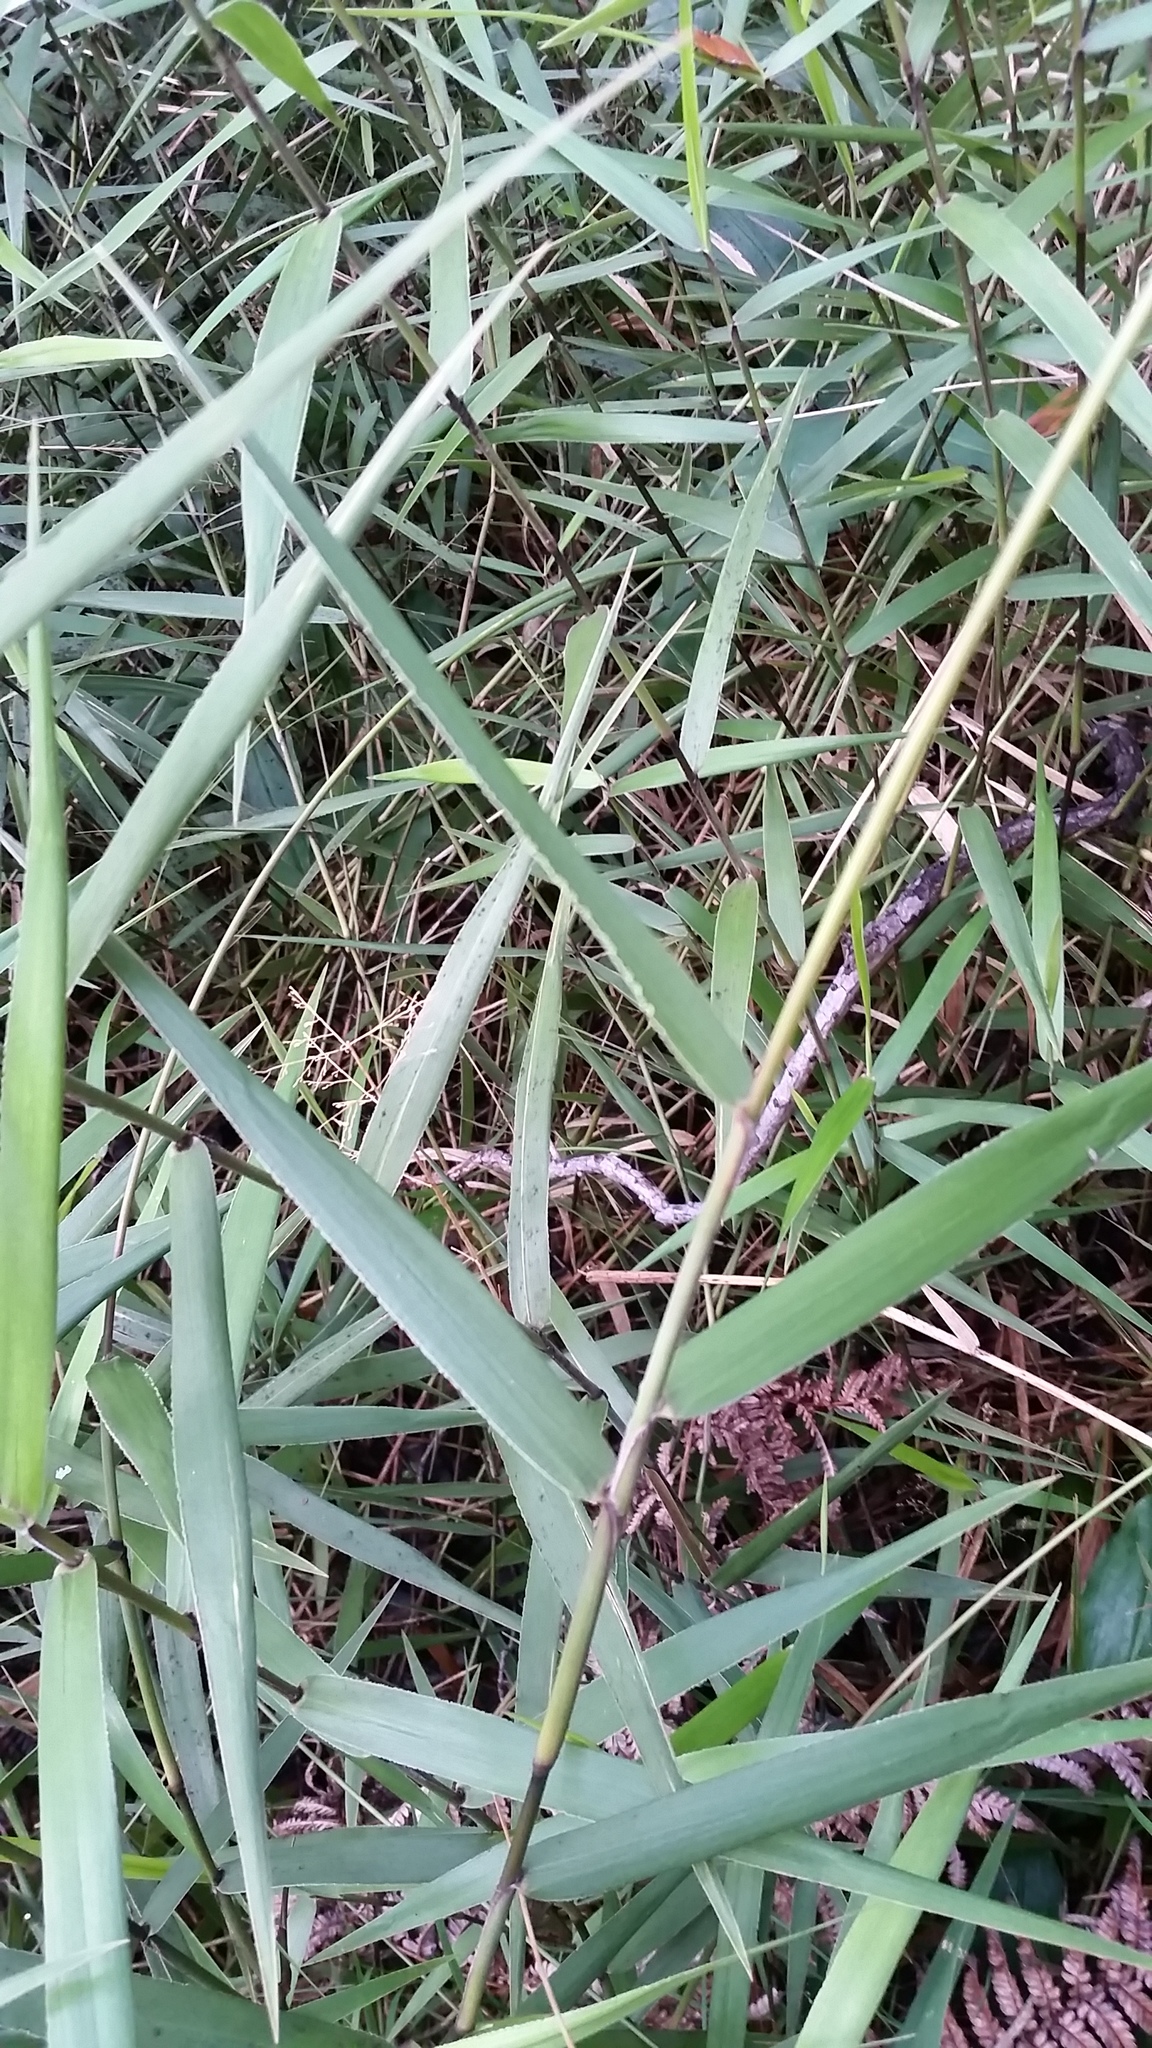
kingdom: Plantae
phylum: Tracheophyta
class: Liliopsida
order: Poales
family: Poaceae
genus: Isachne
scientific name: Isachne distichophylla
